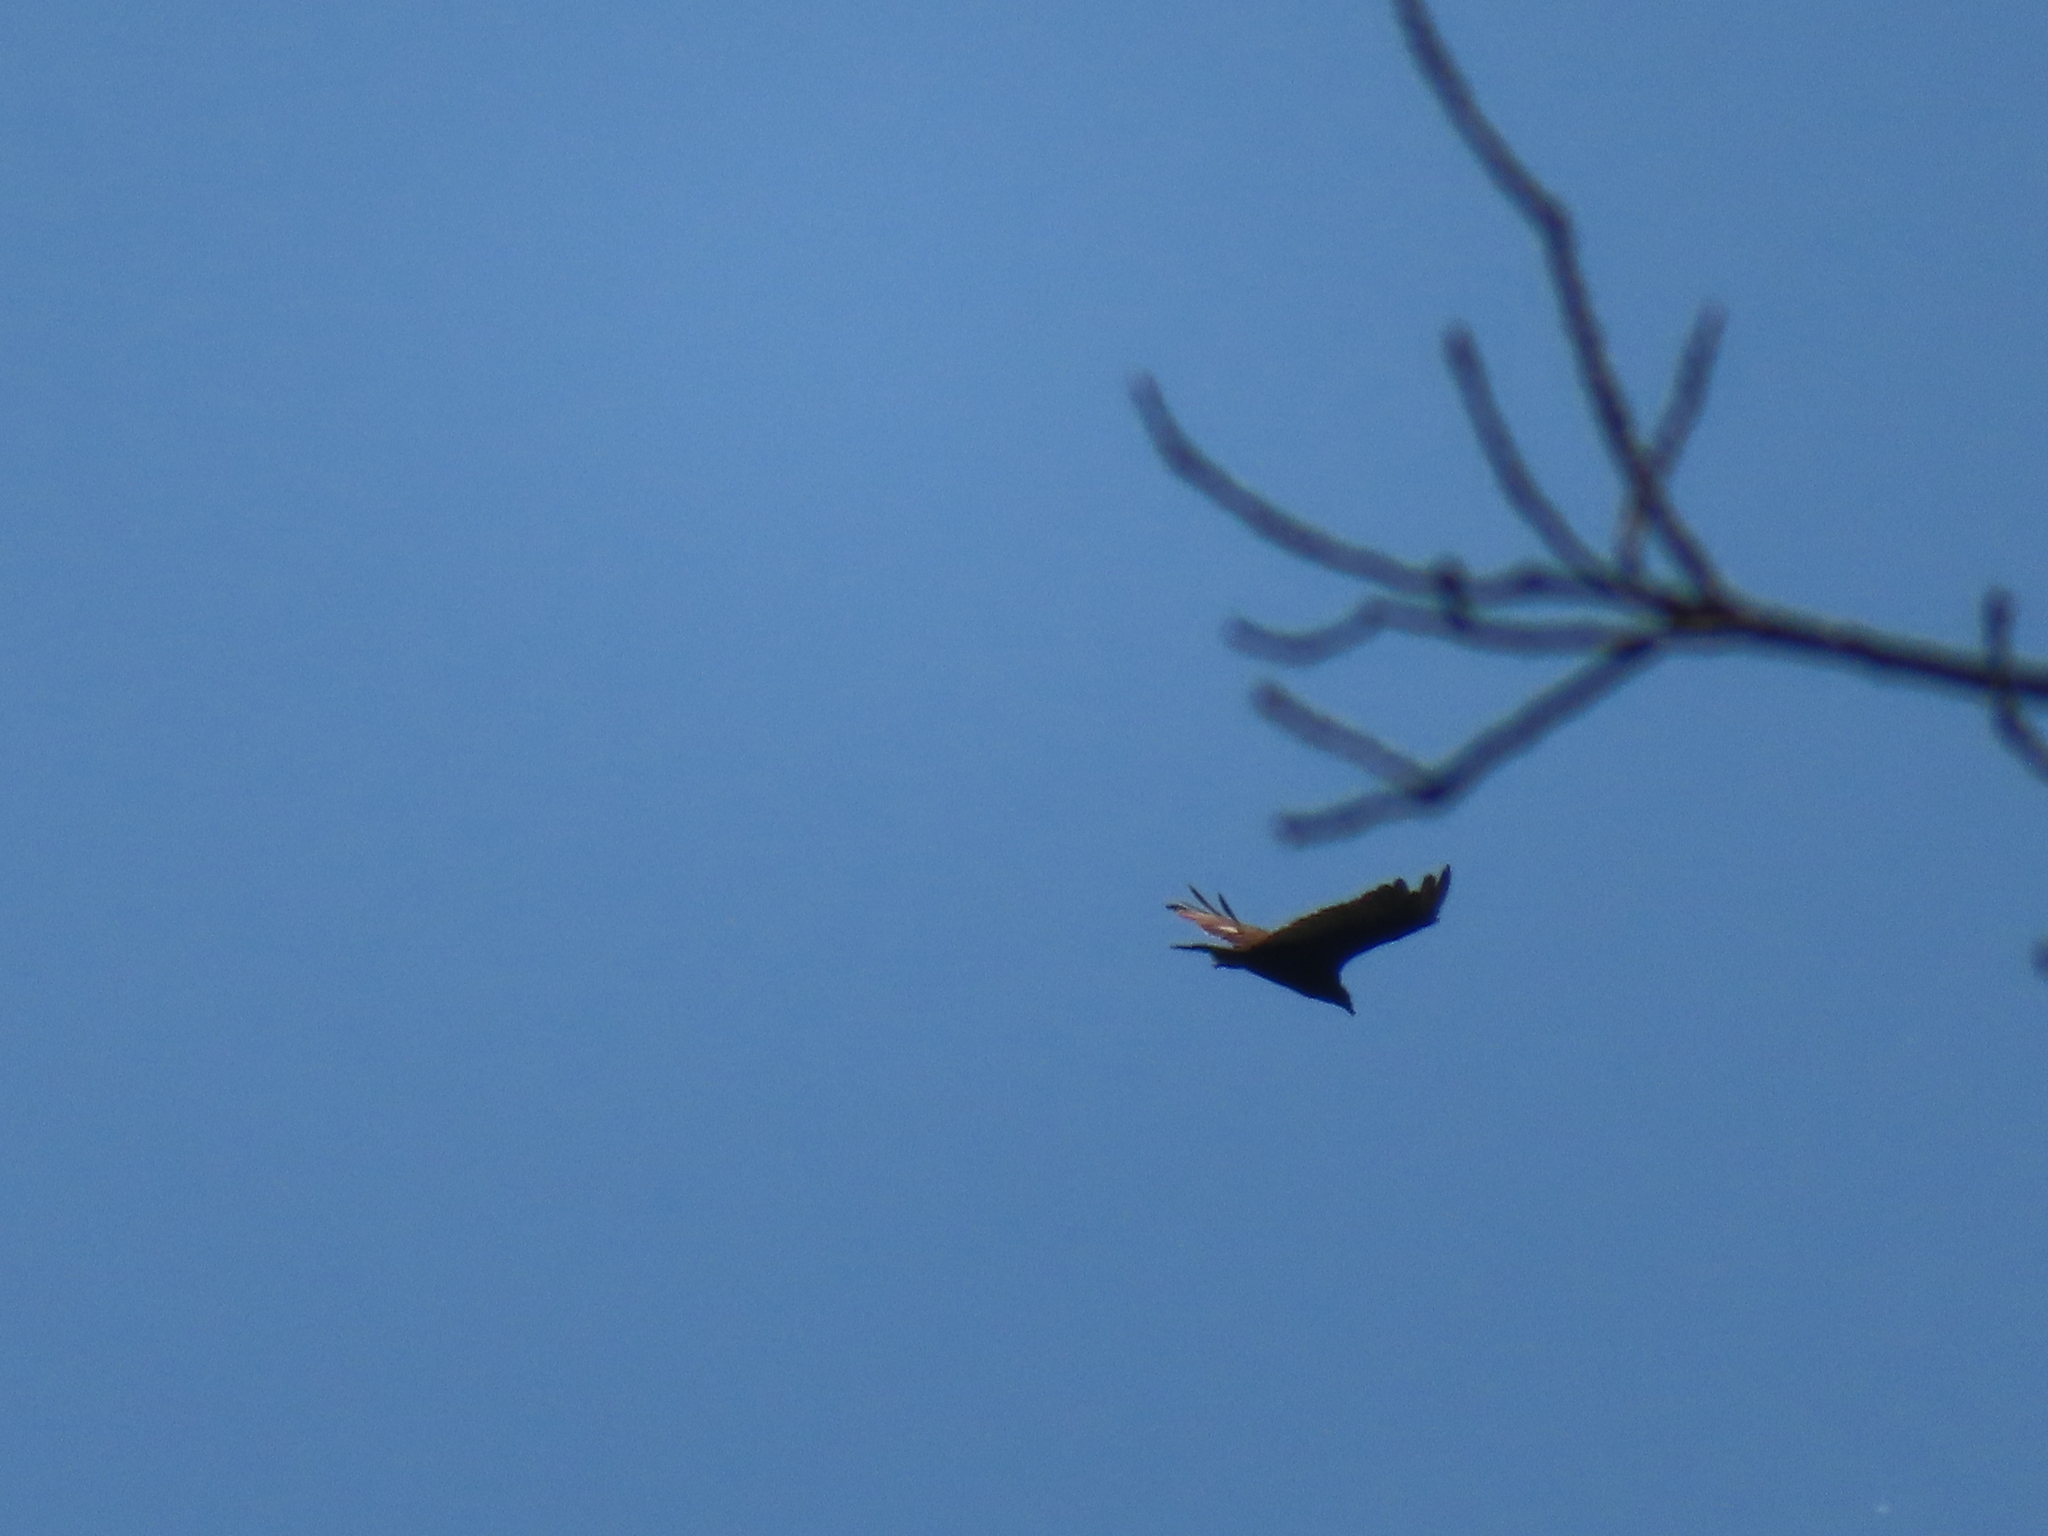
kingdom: Animalia
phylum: Chordata
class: Aves
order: Accipitriformes
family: Cathartidae
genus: Cathartes
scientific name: Cathartes aura
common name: Turkey vulture
